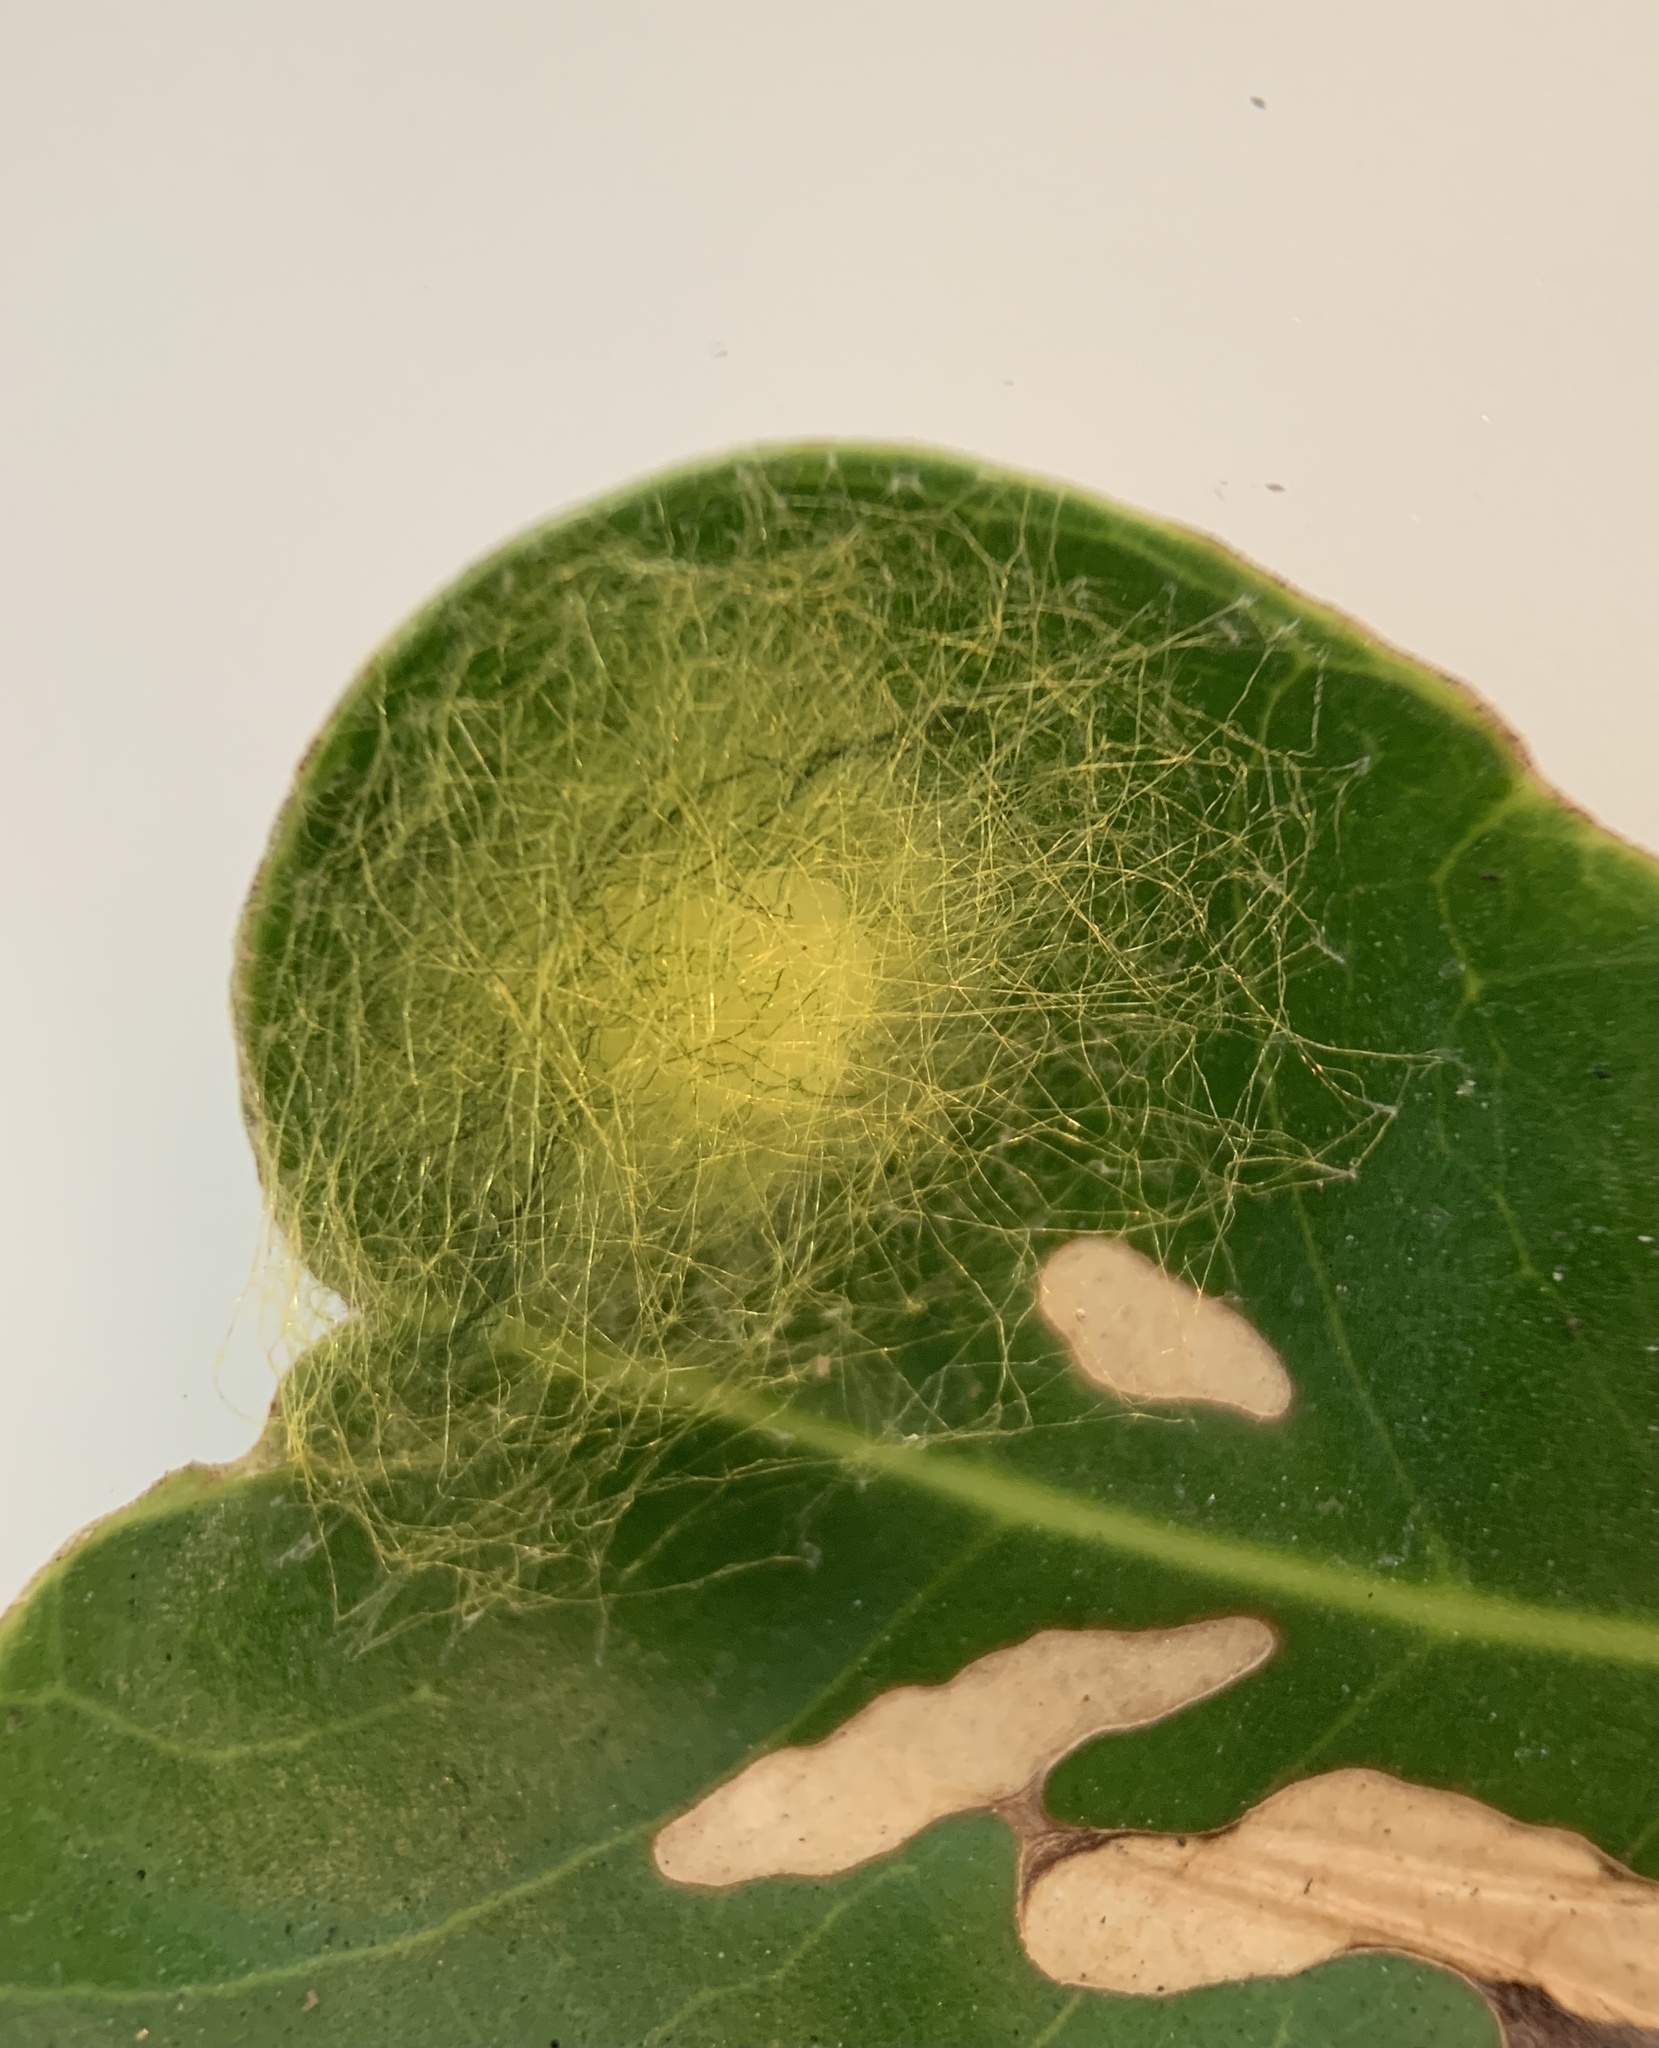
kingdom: Animalia
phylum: Arthropoda
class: Arachnida
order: Araneae
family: Araneidae
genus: Gasteracantha
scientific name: Gasteracantha cancriformis
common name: Orb weavers
